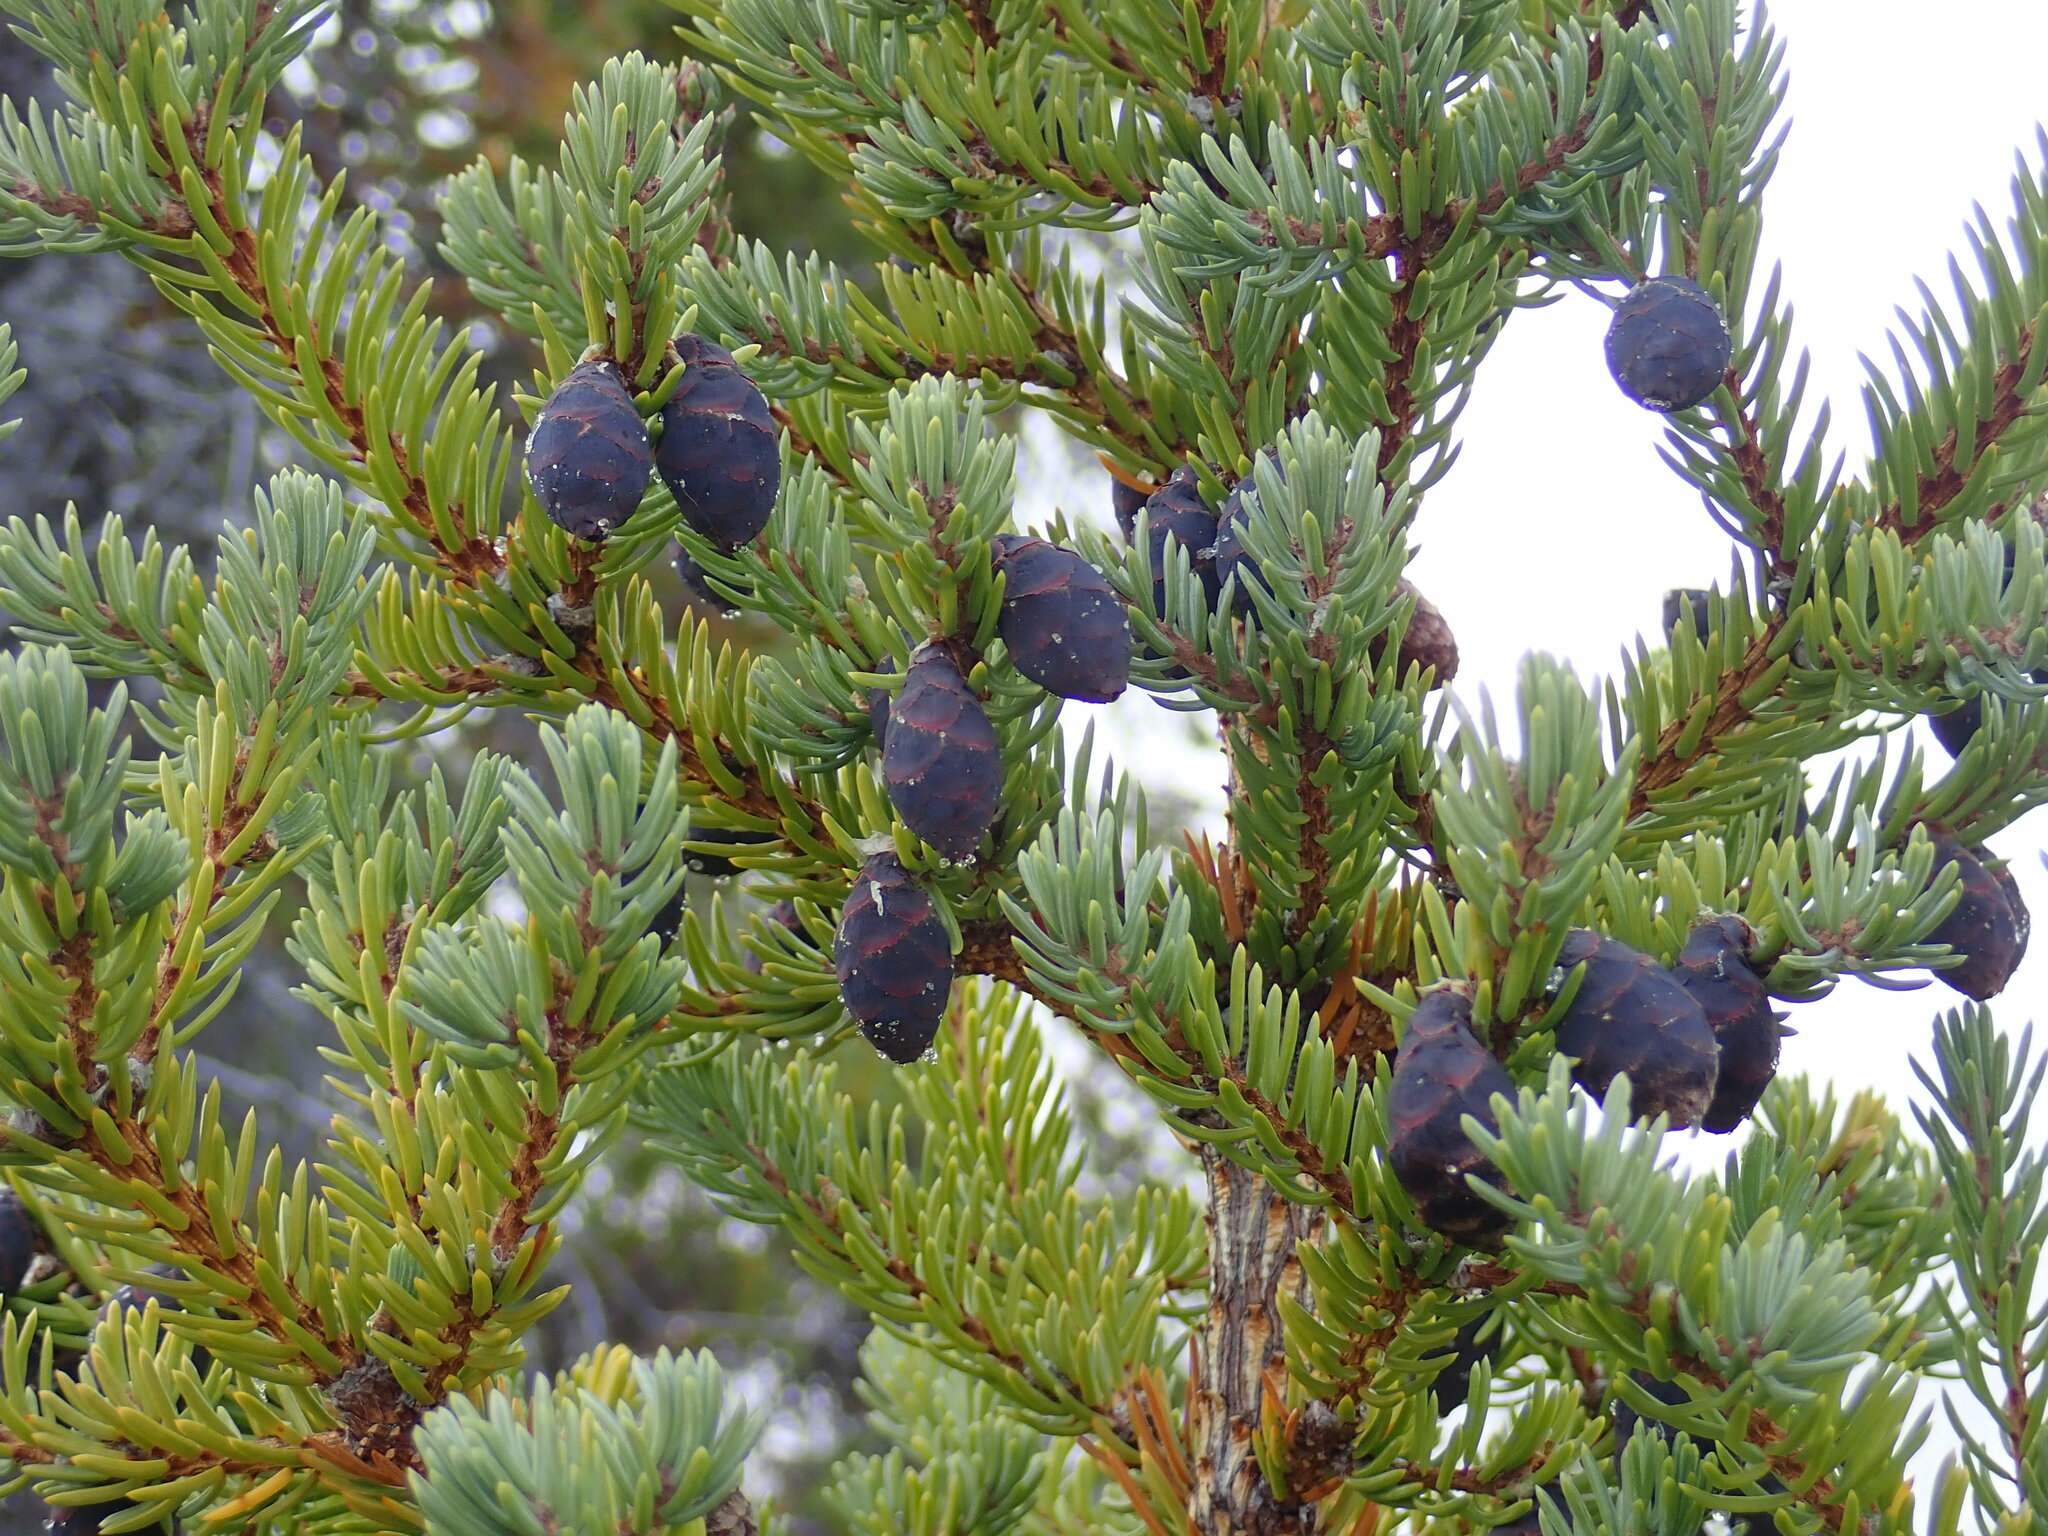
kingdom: Plantae
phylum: Tracheophyta
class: Pinopsida
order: Pinales
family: Pinaceae
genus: Picea
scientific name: Picea mariana
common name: Black spruce
